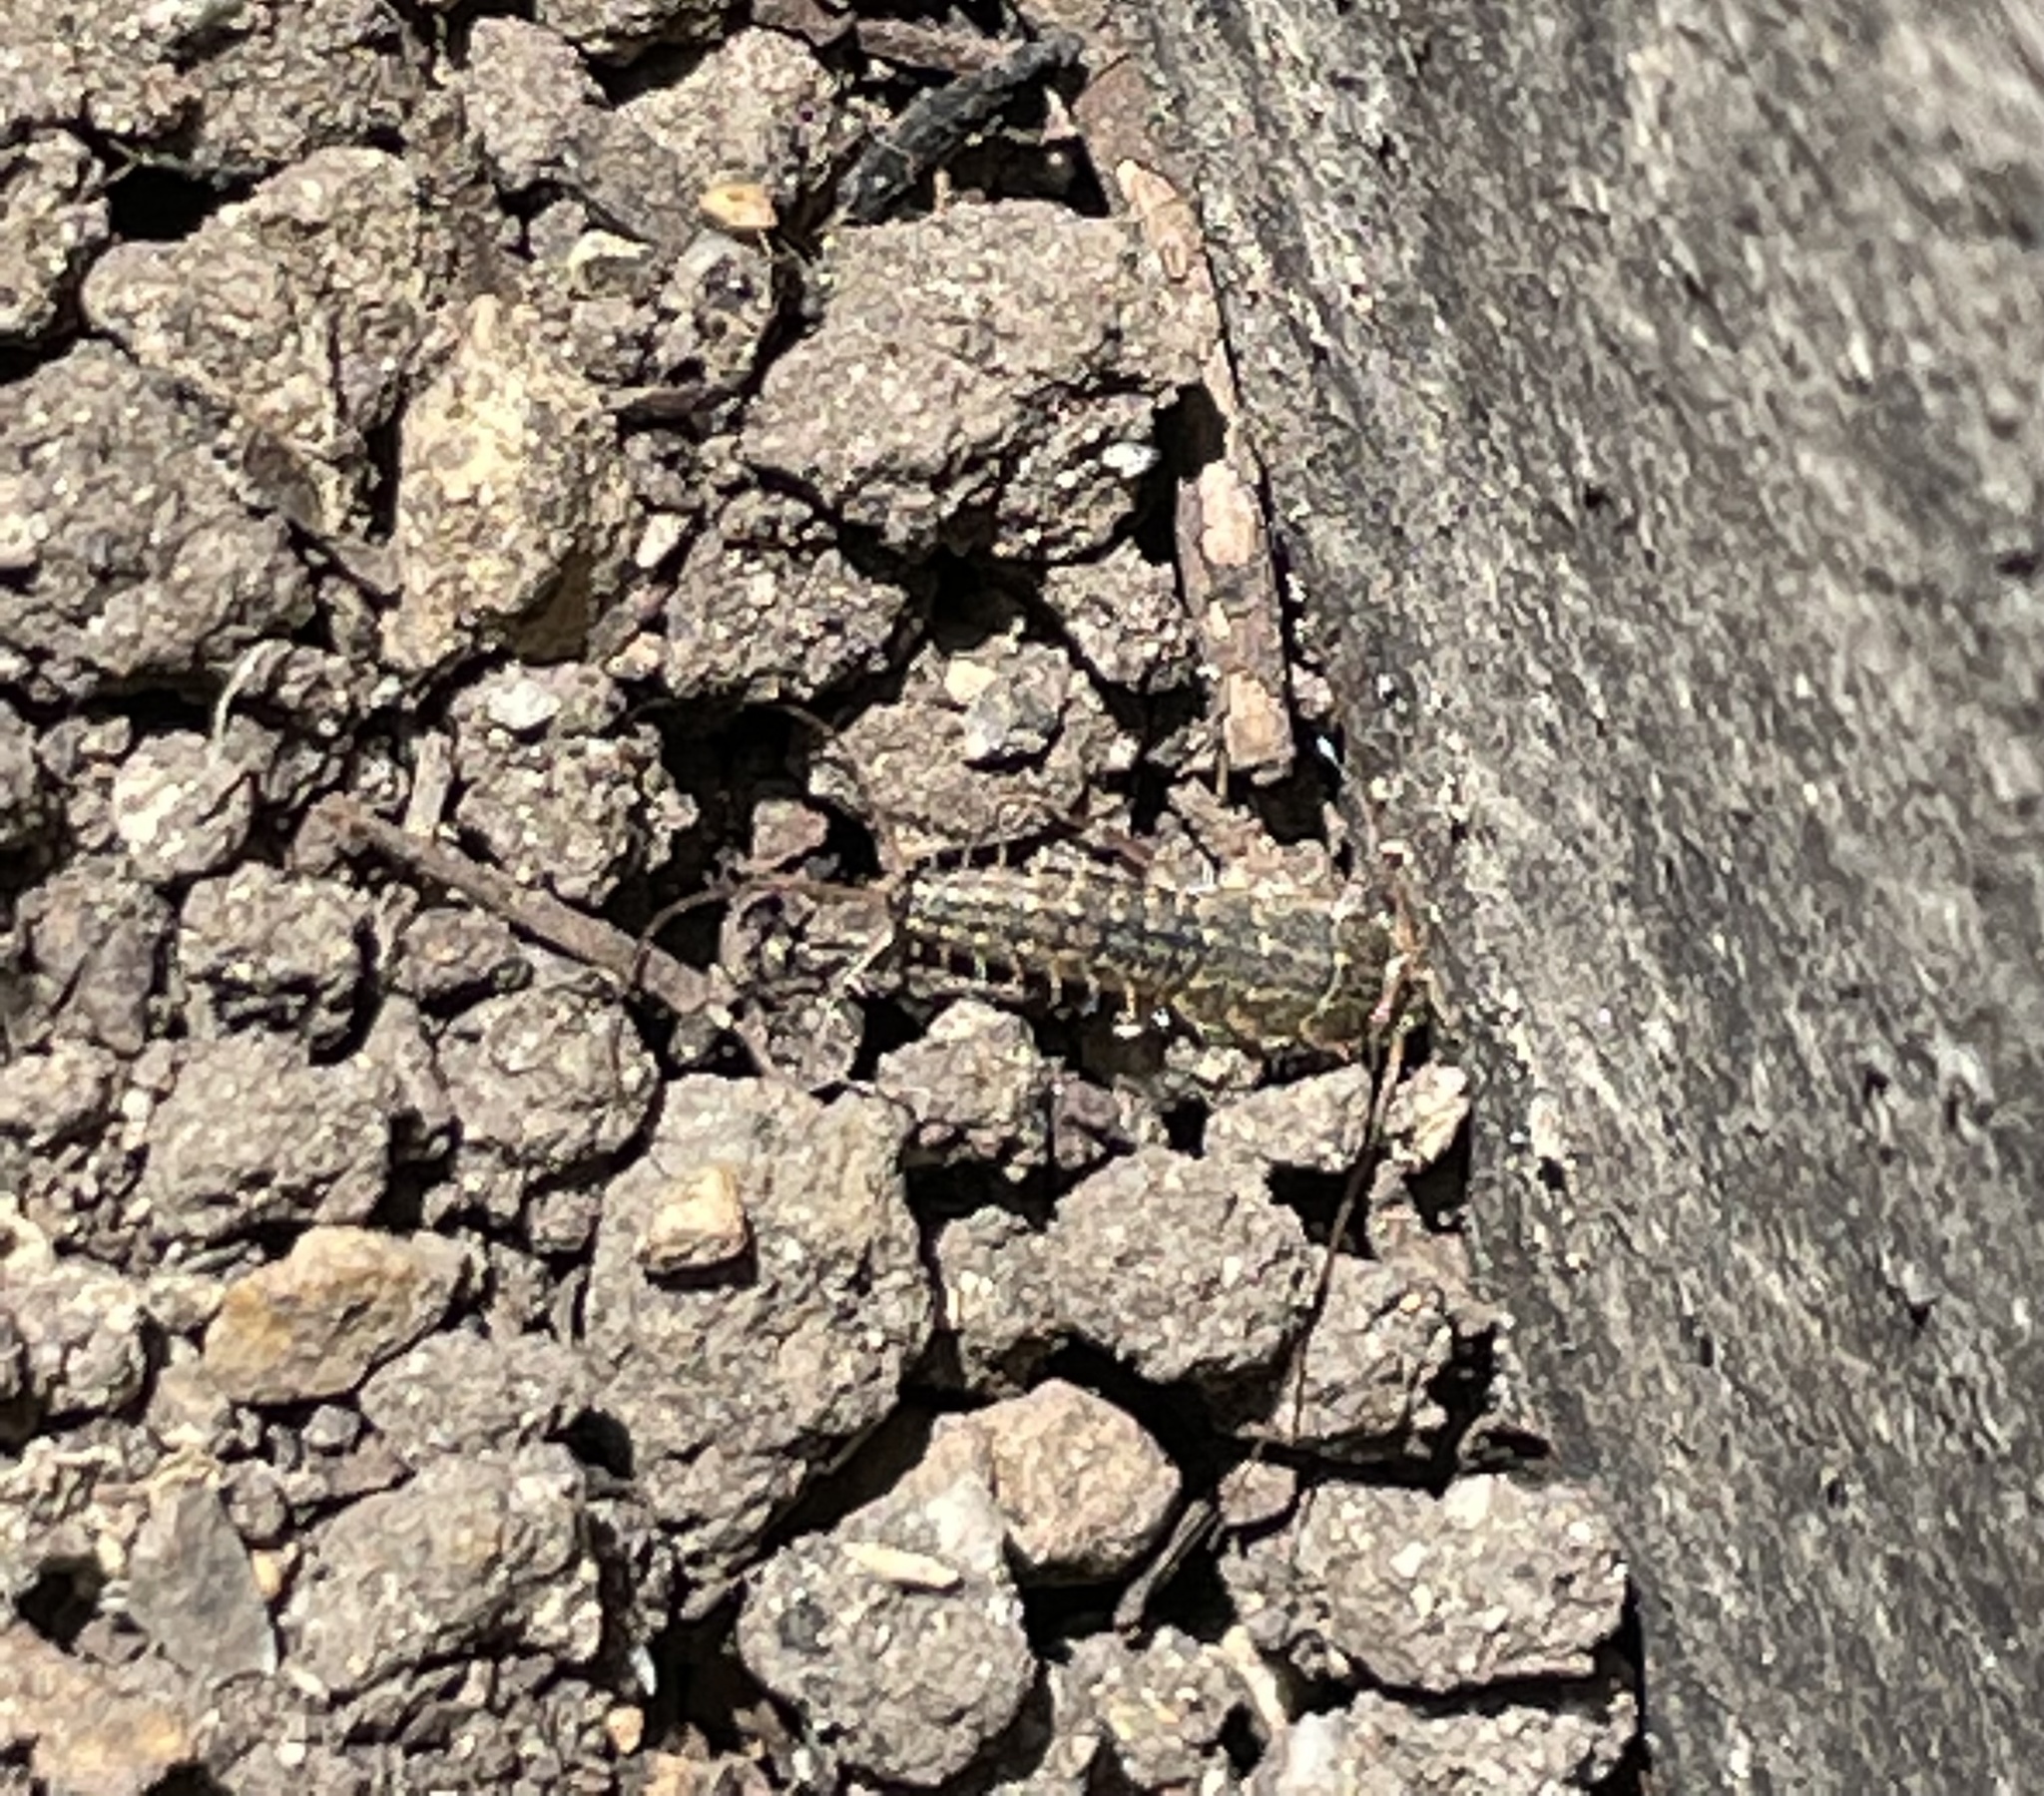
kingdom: Animalia
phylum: Arthropoda
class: Insecta
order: Zygentoma
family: Lepismatidae
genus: Ctenolepisma
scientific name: Ctenolepisma lineata
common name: Four-lined silverfish
